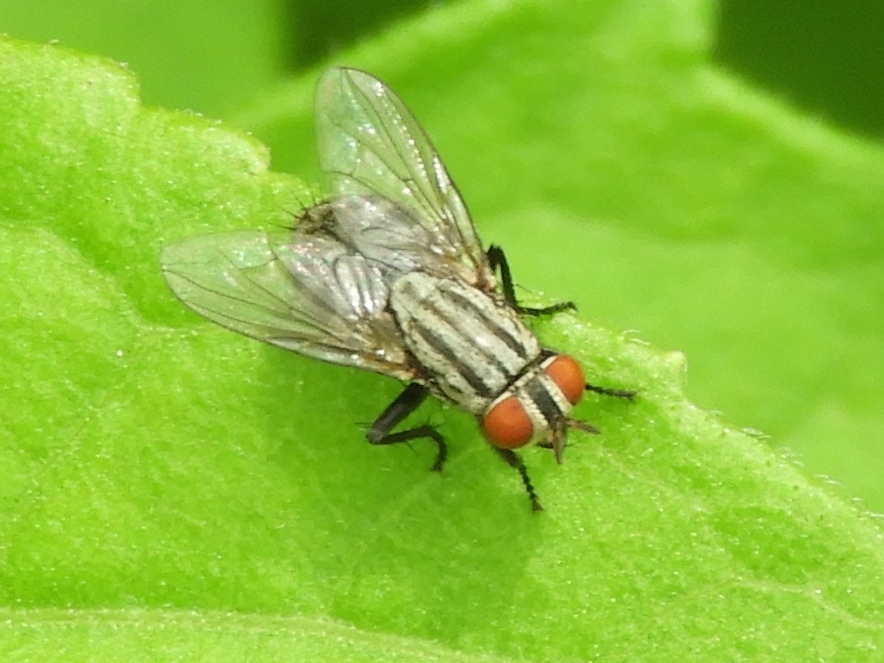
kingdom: Animalia
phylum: Arthropoda
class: Insecta
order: Diptera
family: Sarcophagidae
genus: Sarcophaga
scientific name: Sarcophaga
